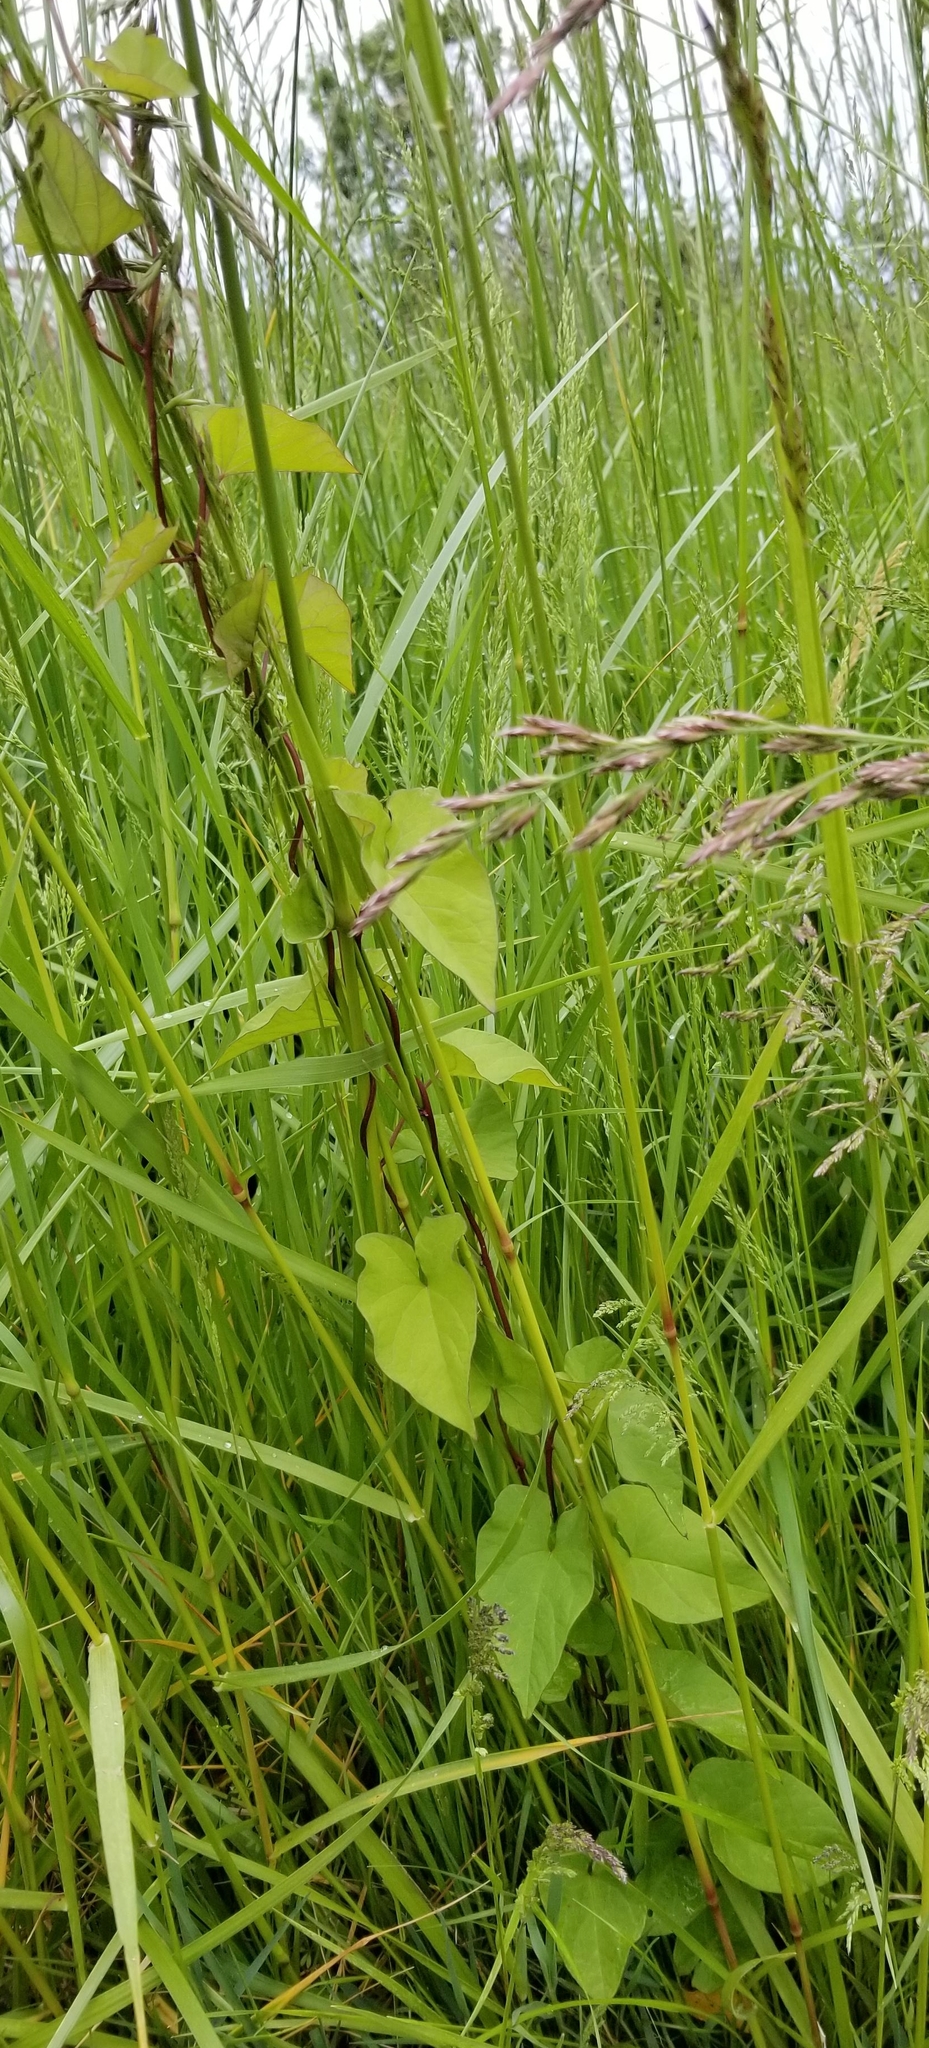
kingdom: Plantae
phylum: Tracheophyta
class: Magnoliopsida
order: Solanales
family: Convolvulaceae
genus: Convolvulus
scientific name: Convolvulus arvensis
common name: Field bindweed
